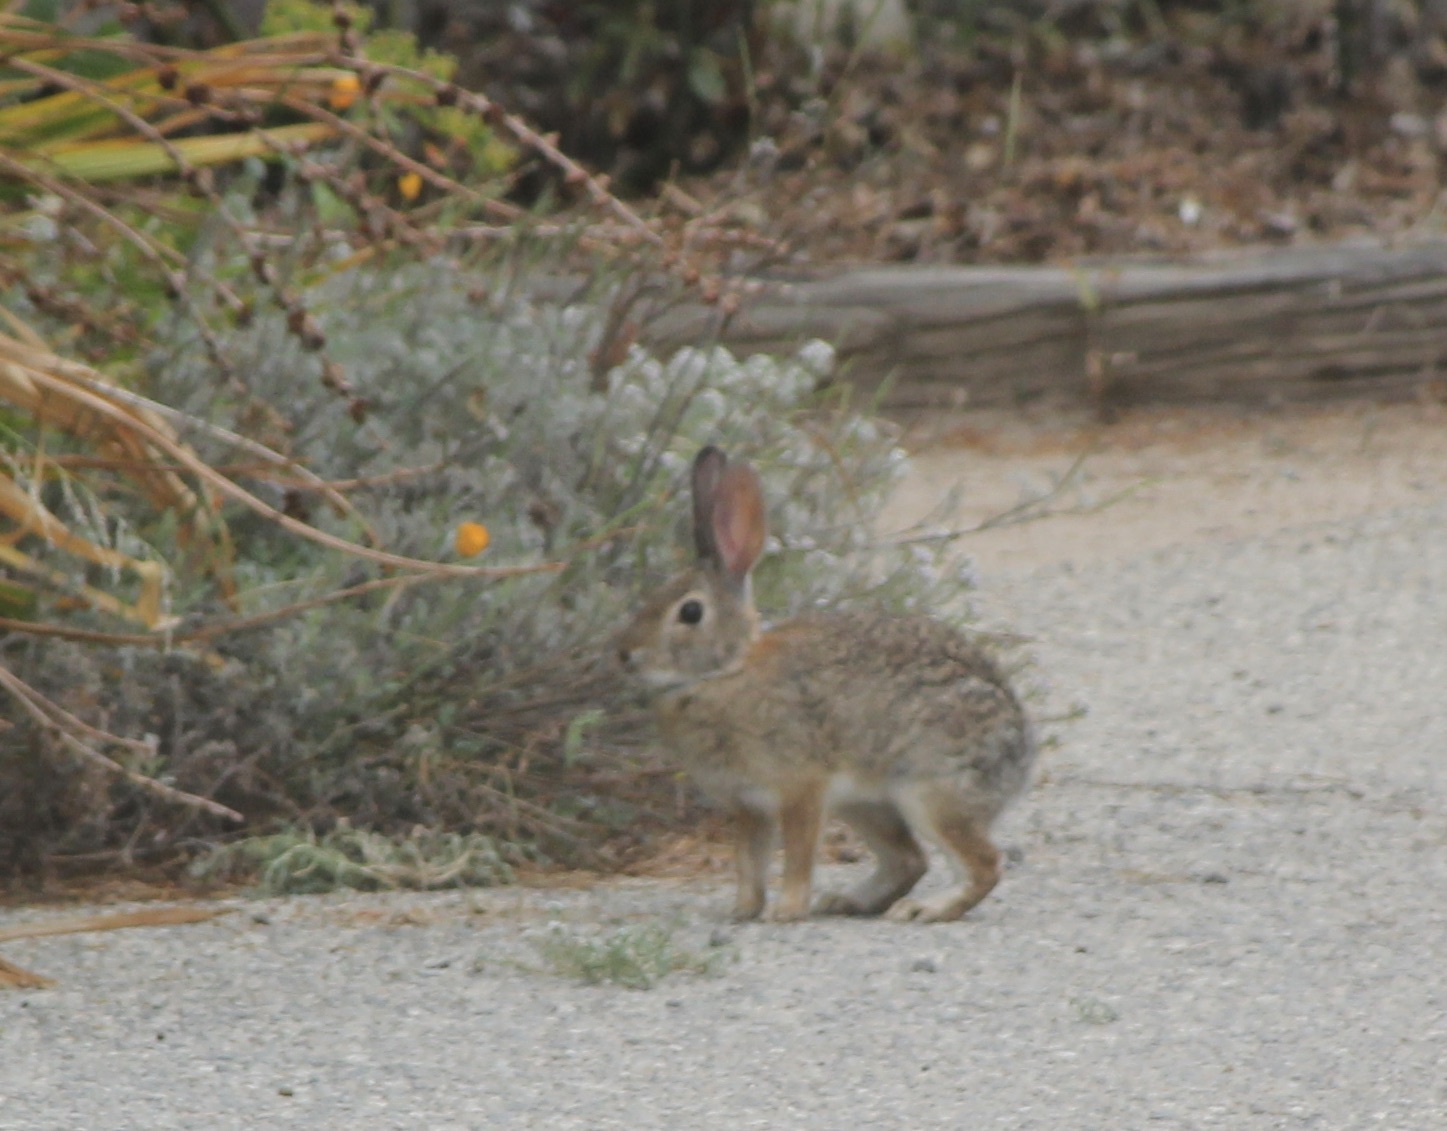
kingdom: Animalia
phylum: Chordata
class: Mammalia
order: Lagomorpha
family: Leporidae
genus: Sylvilagus
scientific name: Sylvilagus audubonii
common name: Desert cottontail
